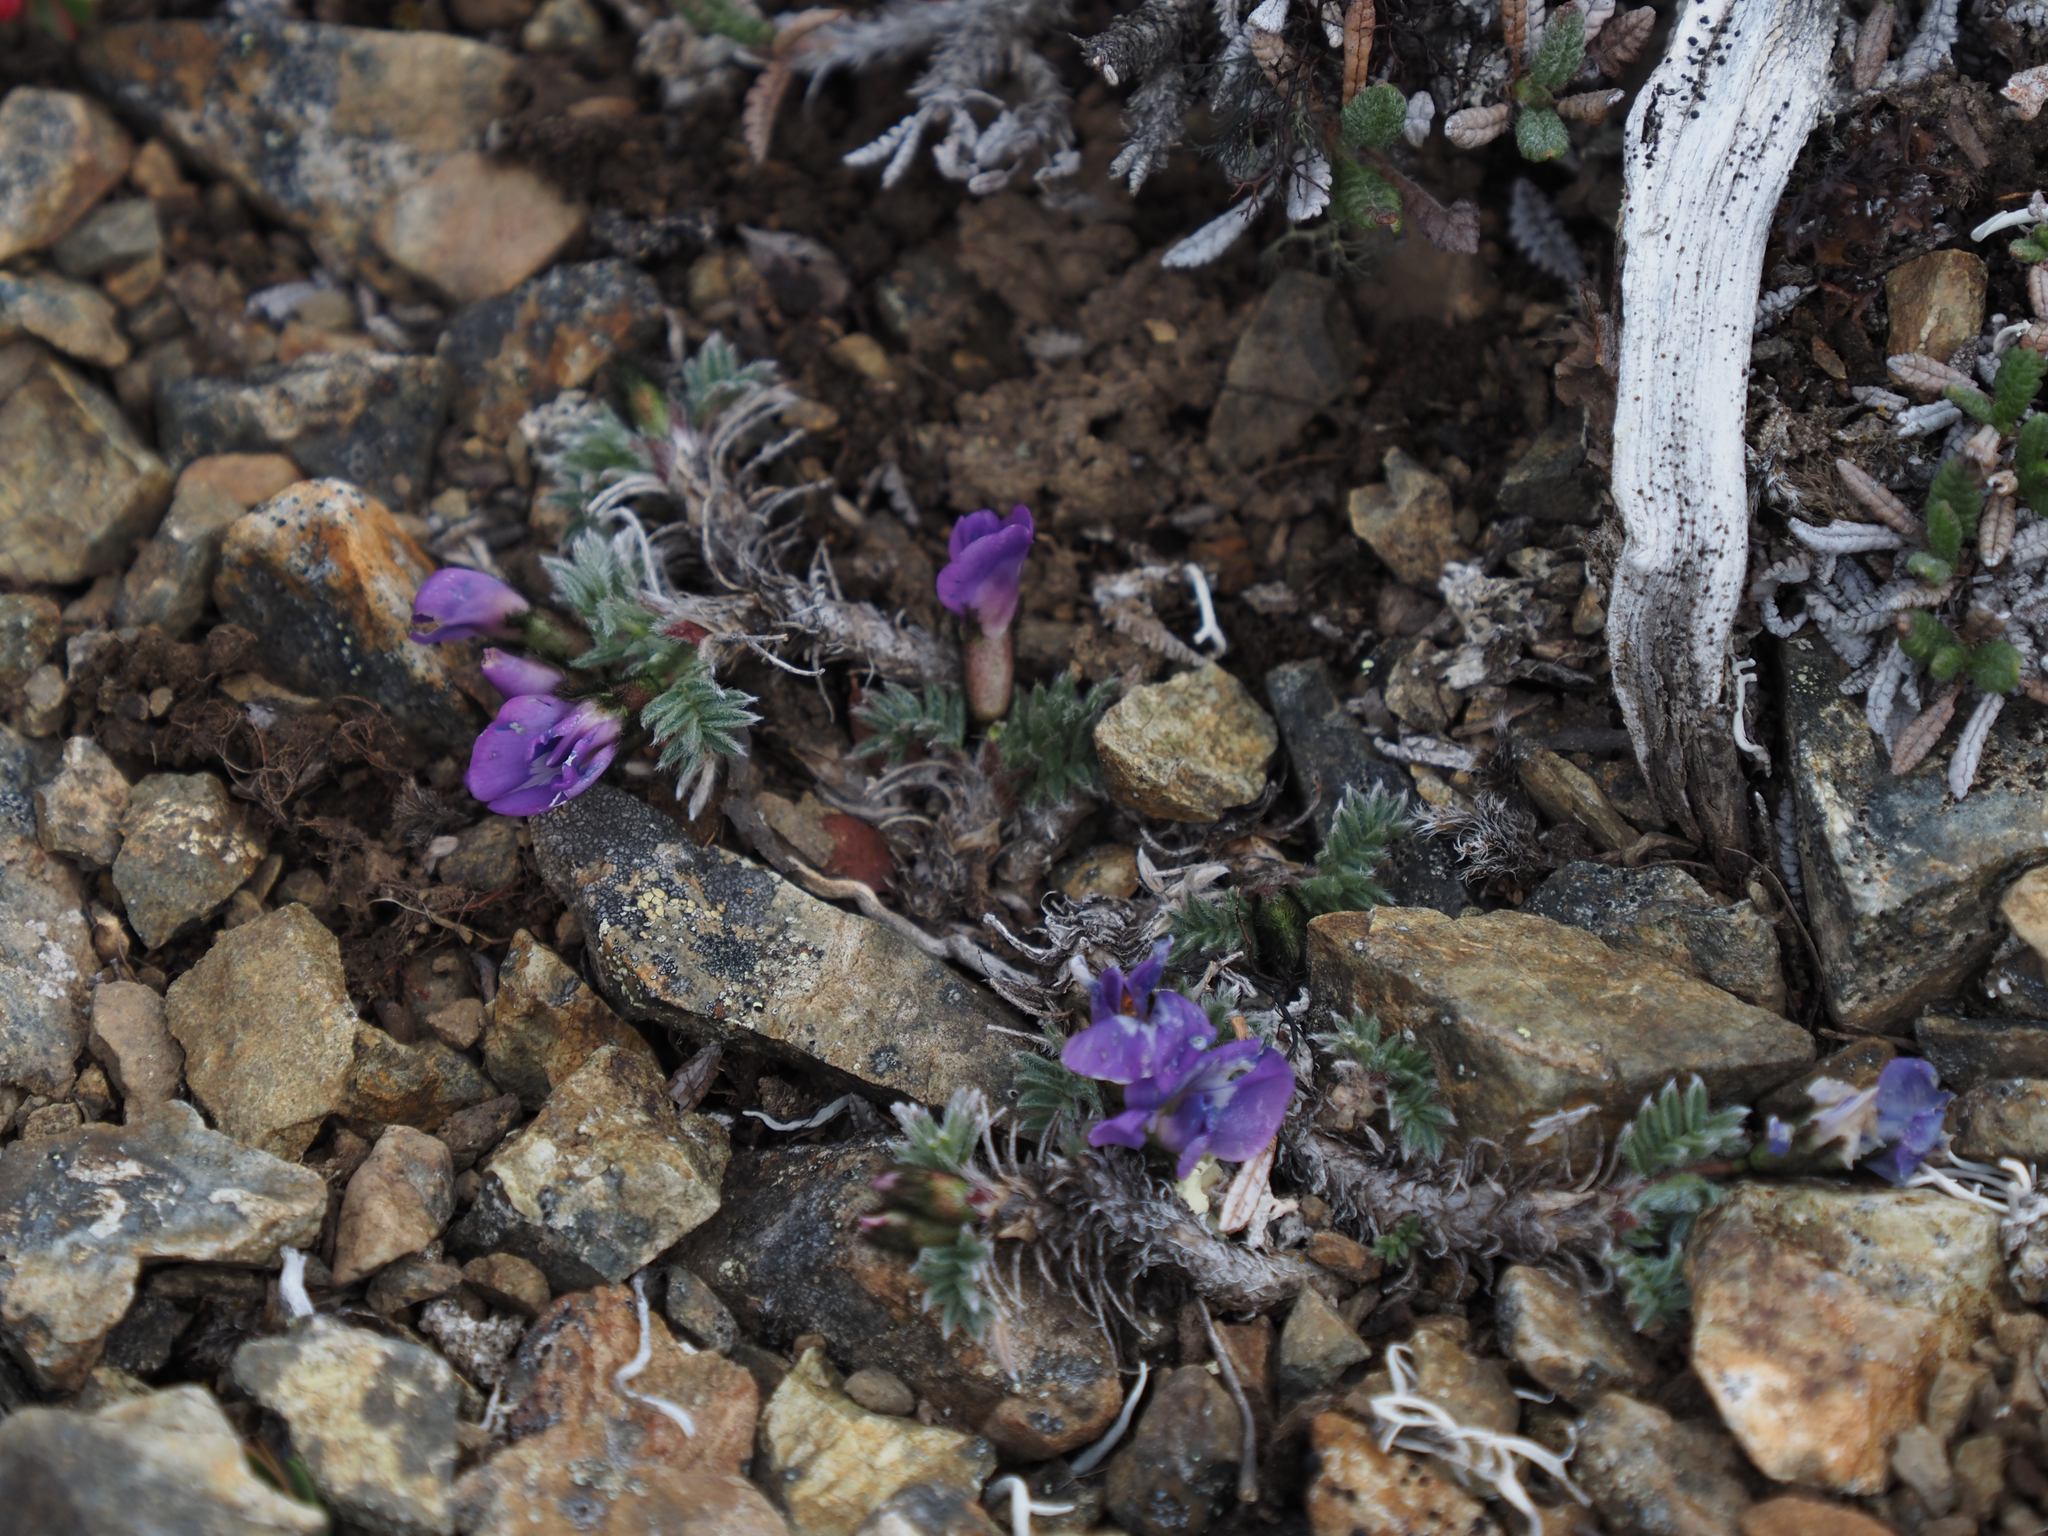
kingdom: Plantae
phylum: Tracheophyta
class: Magnoliopsida
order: Fabales
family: Fabaceae
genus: Oxytropis
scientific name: Oxytropis nigrescens
